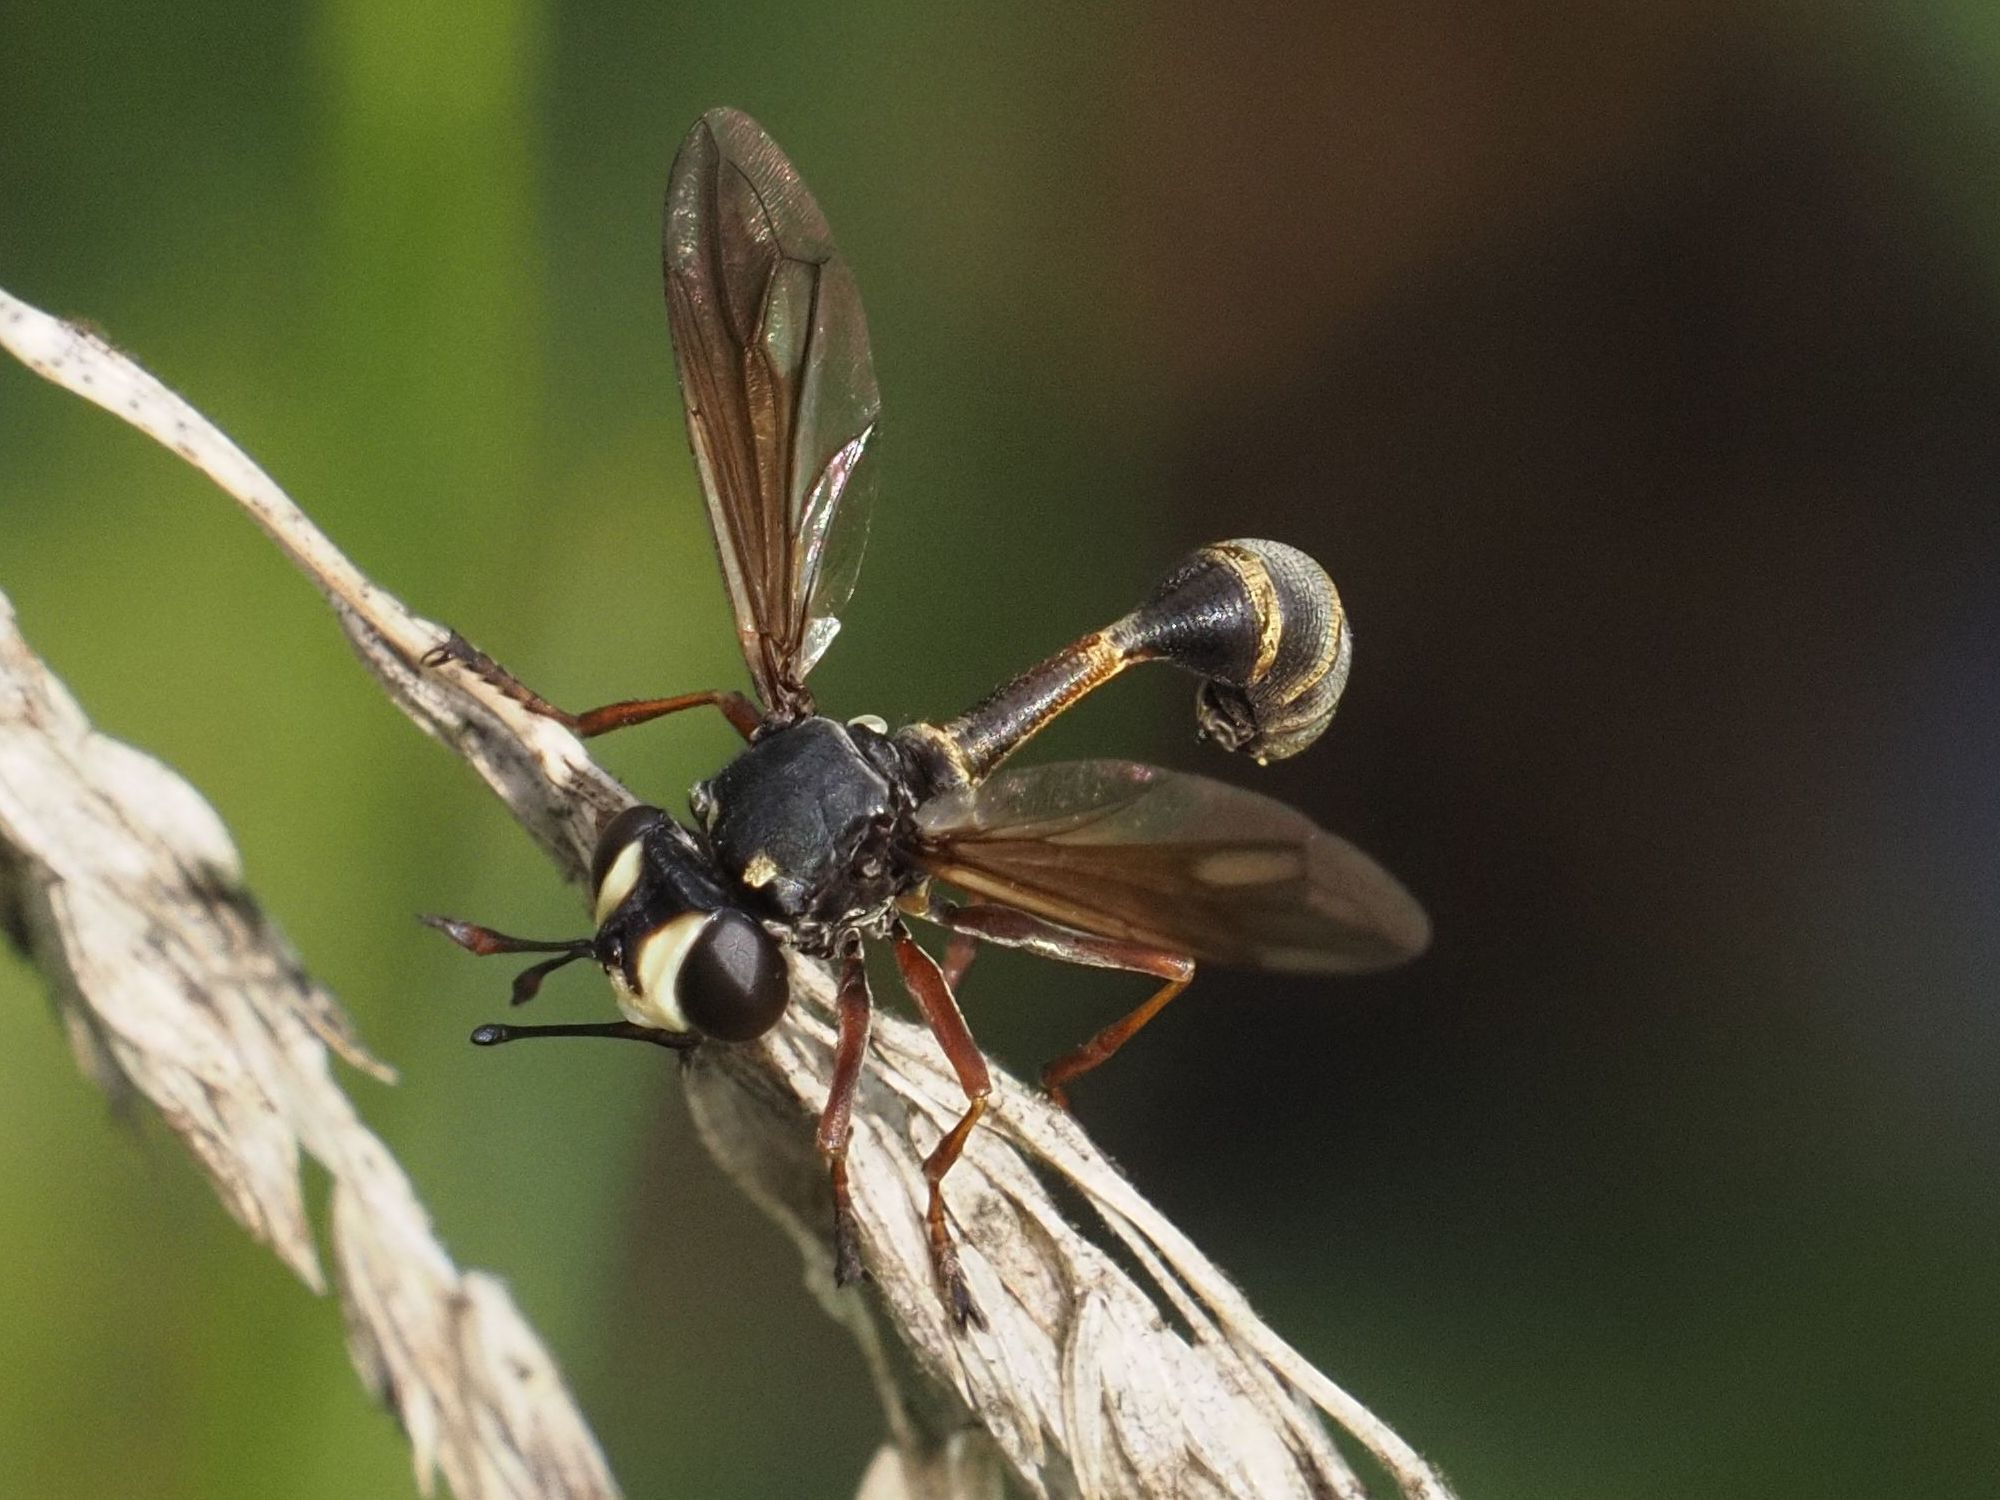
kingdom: Animalia
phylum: Arthropoda
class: Insecta
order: Diptera
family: Conopidae
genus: Physocephala
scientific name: Physocephala rufipes
